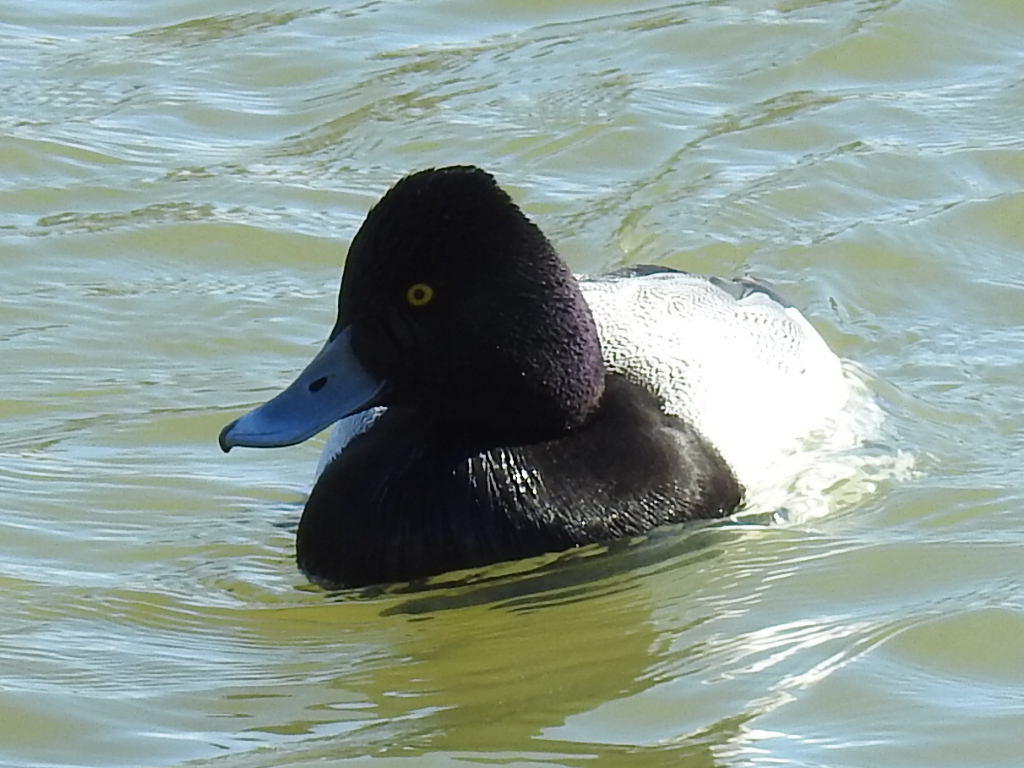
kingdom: Animalia
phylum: Chordata
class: Aves
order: Anseriformes
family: Anatidae
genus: Aythya
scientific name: Aythya affinis
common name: Lesser scaup
